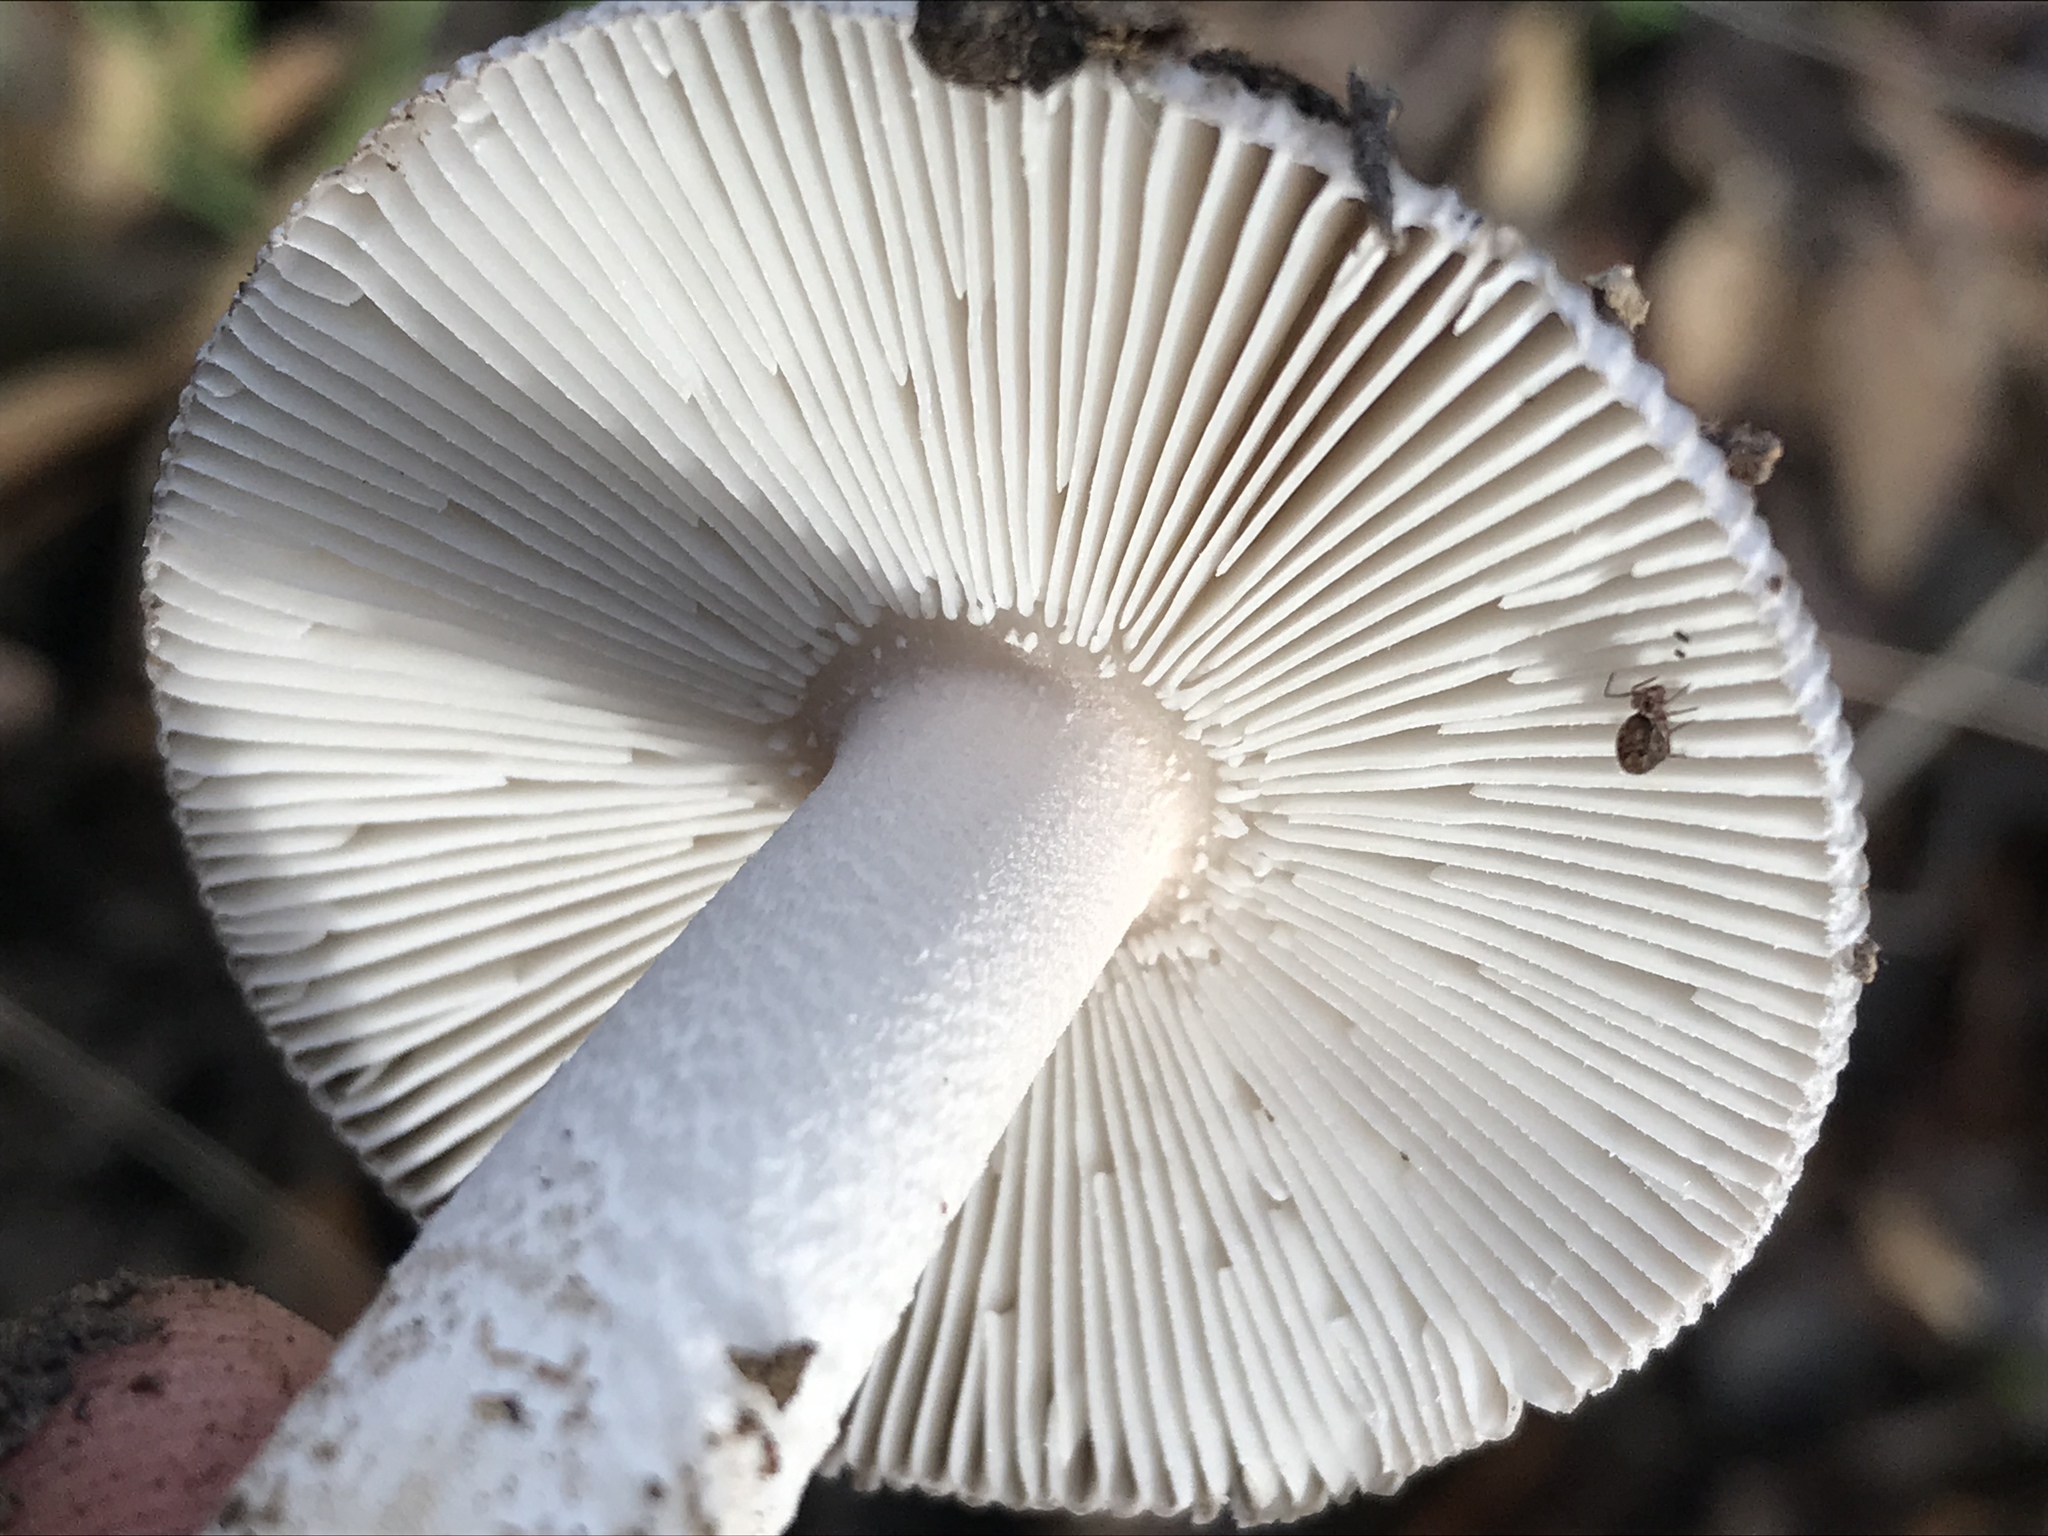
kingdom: Fungi
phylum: Basidiomycota
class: Agaricomycetes
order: Agaricales
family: Amanitaceae
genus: Amanita
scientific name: Amanita constricta
